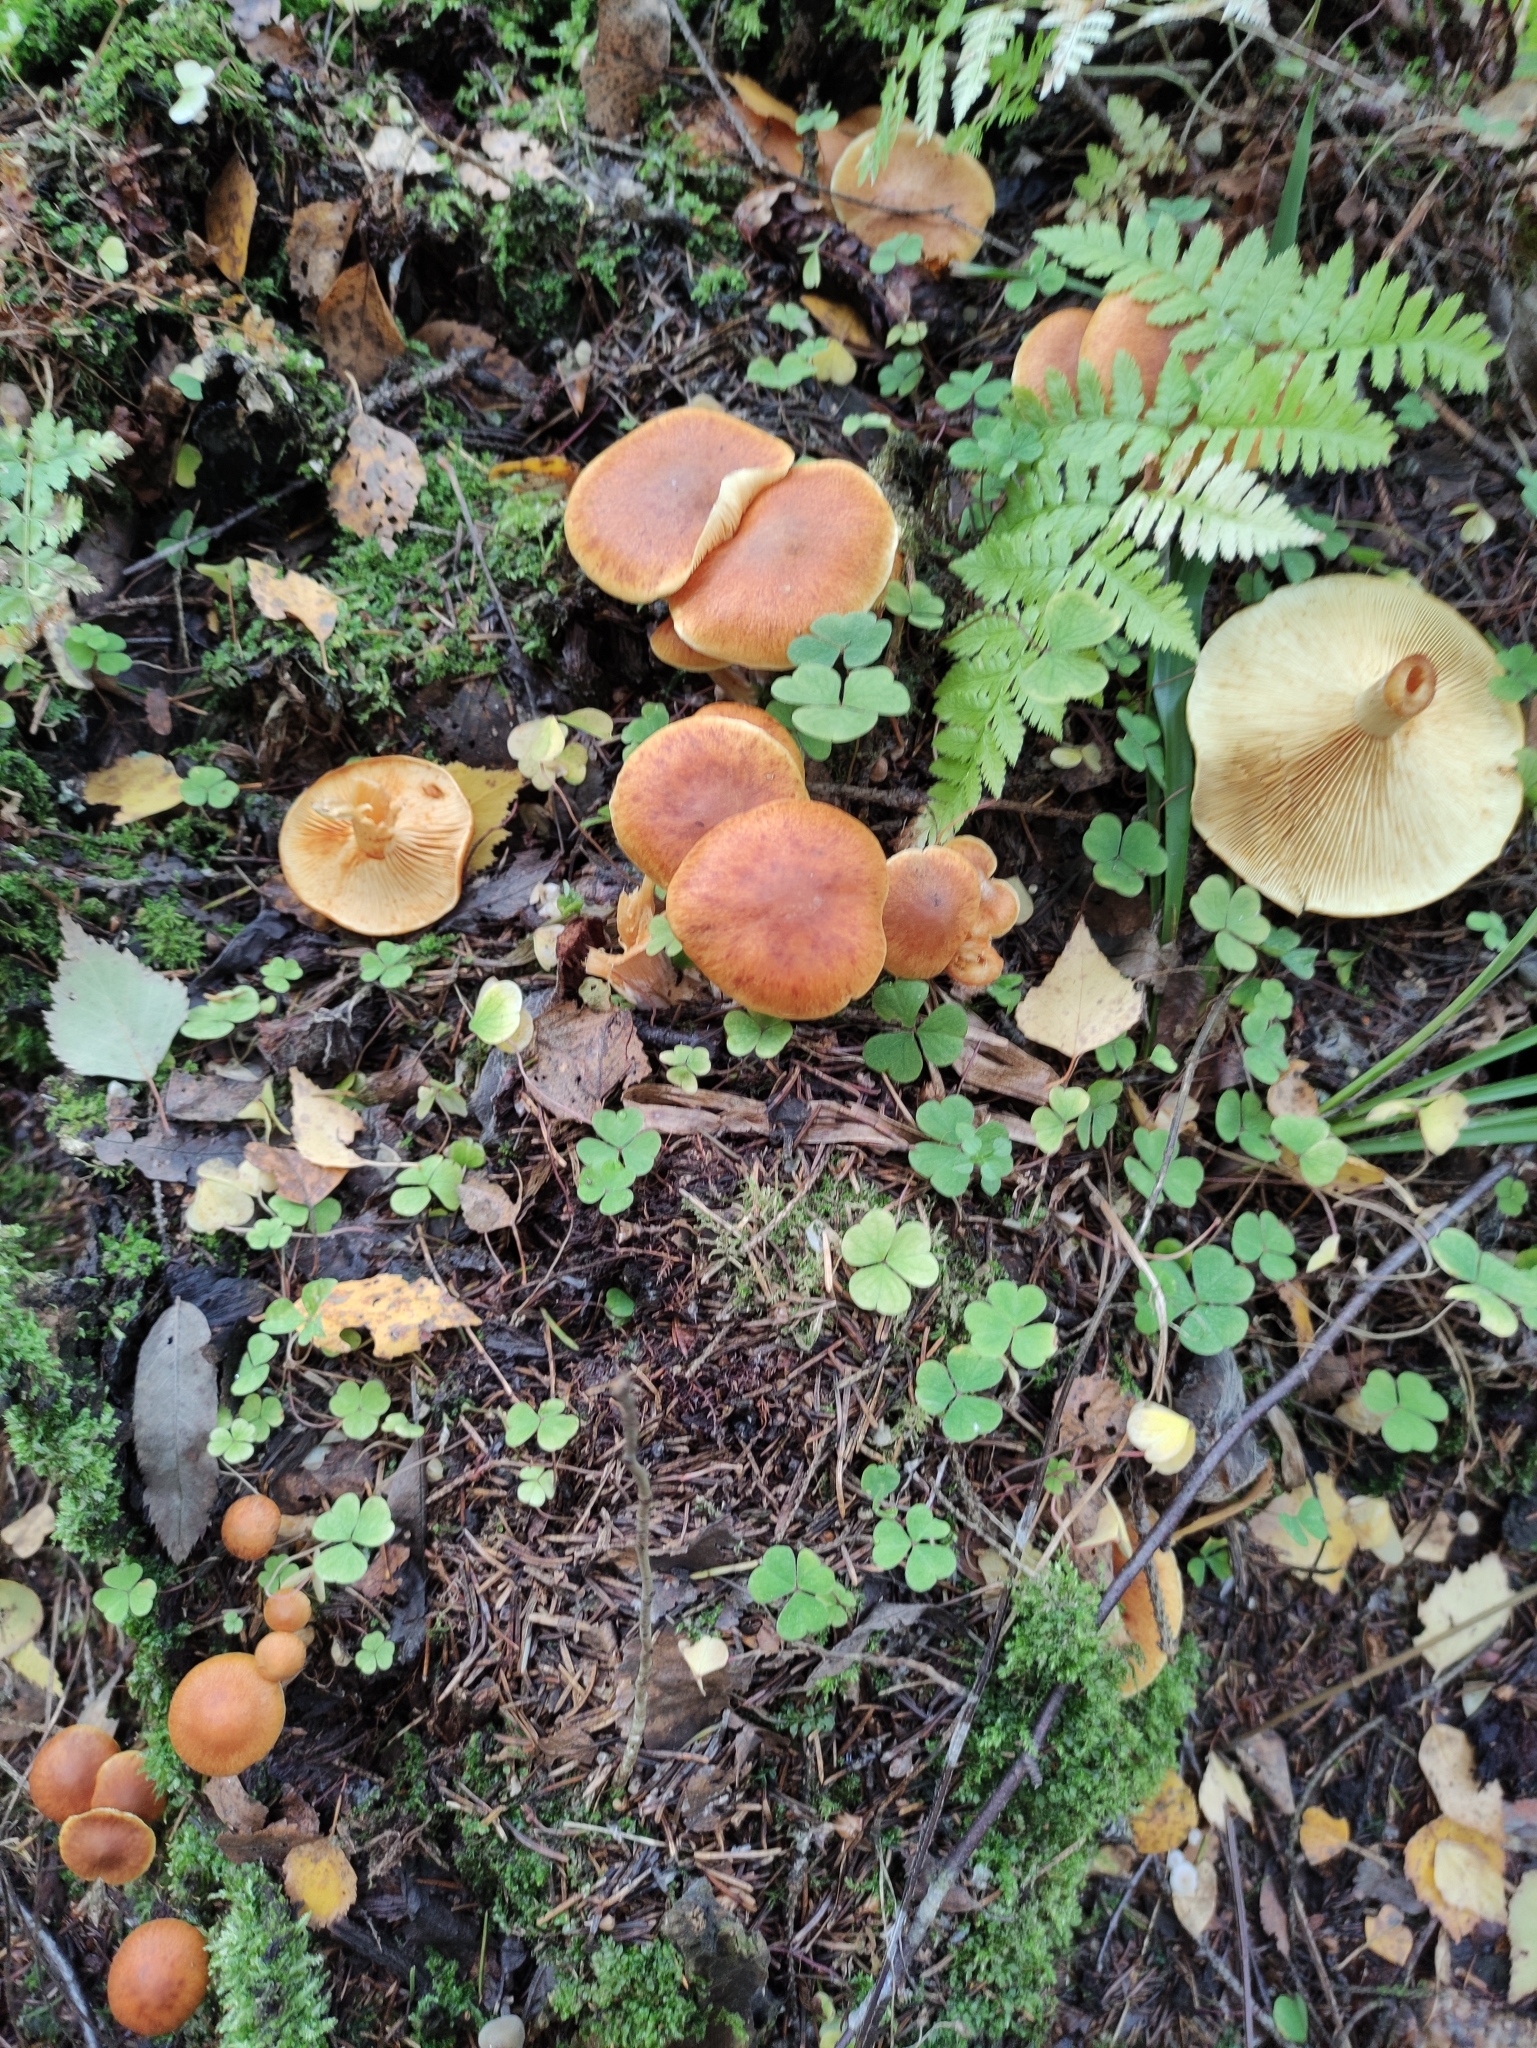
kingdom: Fungi
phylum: Basidiomycota
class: Agaricomycetes
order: Agaricales
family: Hymenogastraceae
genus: Gymnopilus
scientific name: Gymnopilus penetrans
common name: Common rustgill
